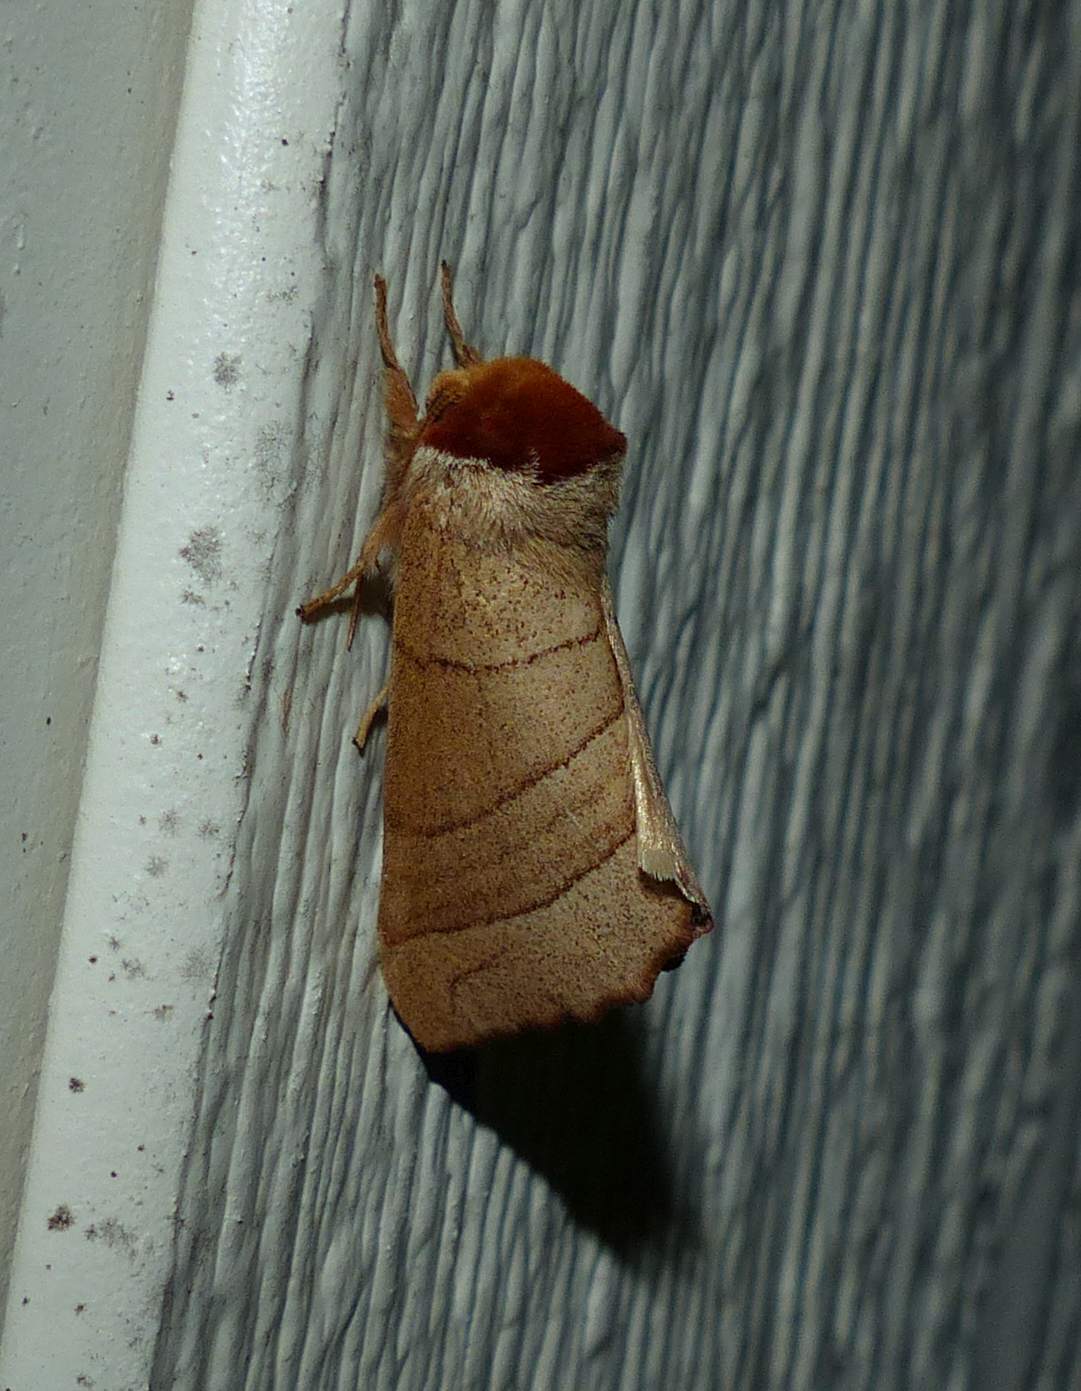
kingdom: Animalia
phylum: Arthropoda
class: Insecta
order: Lepidoptera
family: Notodontidae
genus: Datana
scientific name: Datana ministra
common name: Yellow-necked caterpillar moth
